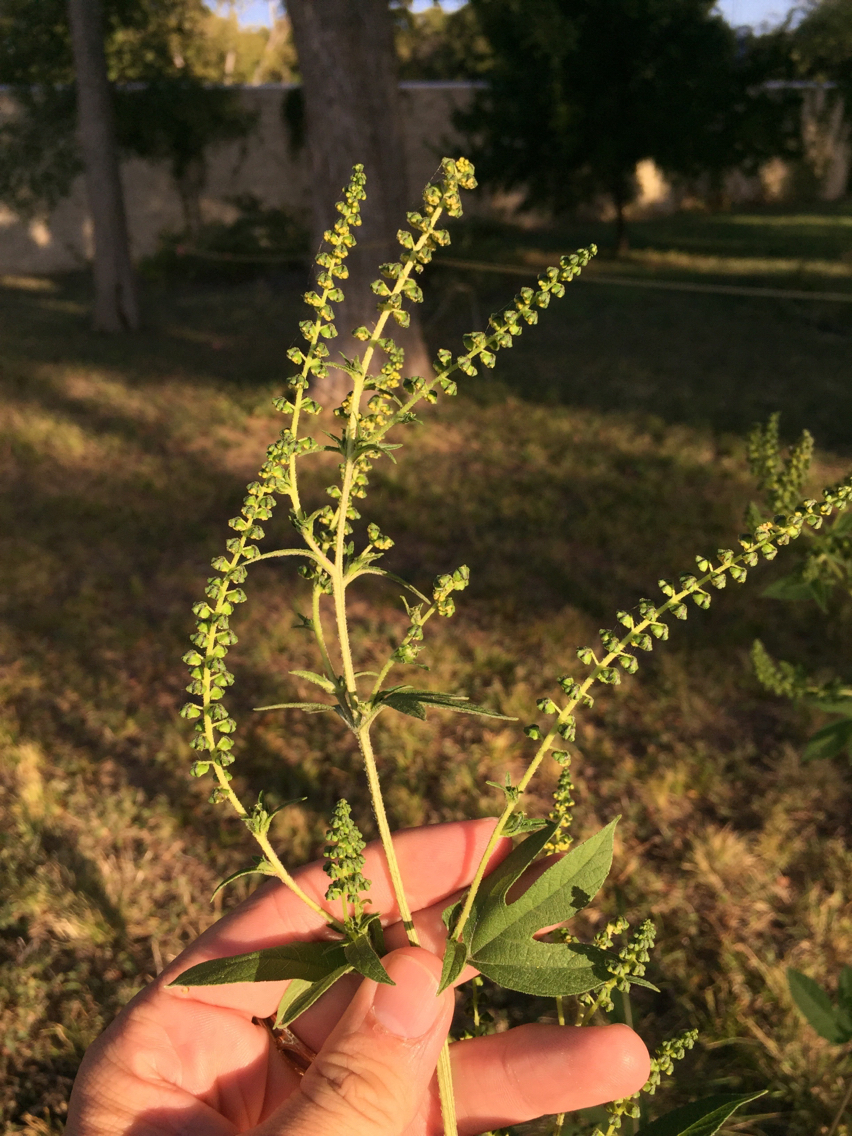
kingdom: Plantae
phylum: Tracheophyta
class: Magnoliopsida
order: Asterales
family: Asteraceae
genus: Ambrosia
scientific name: Ambrosia trifida
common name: Giant ragweed
